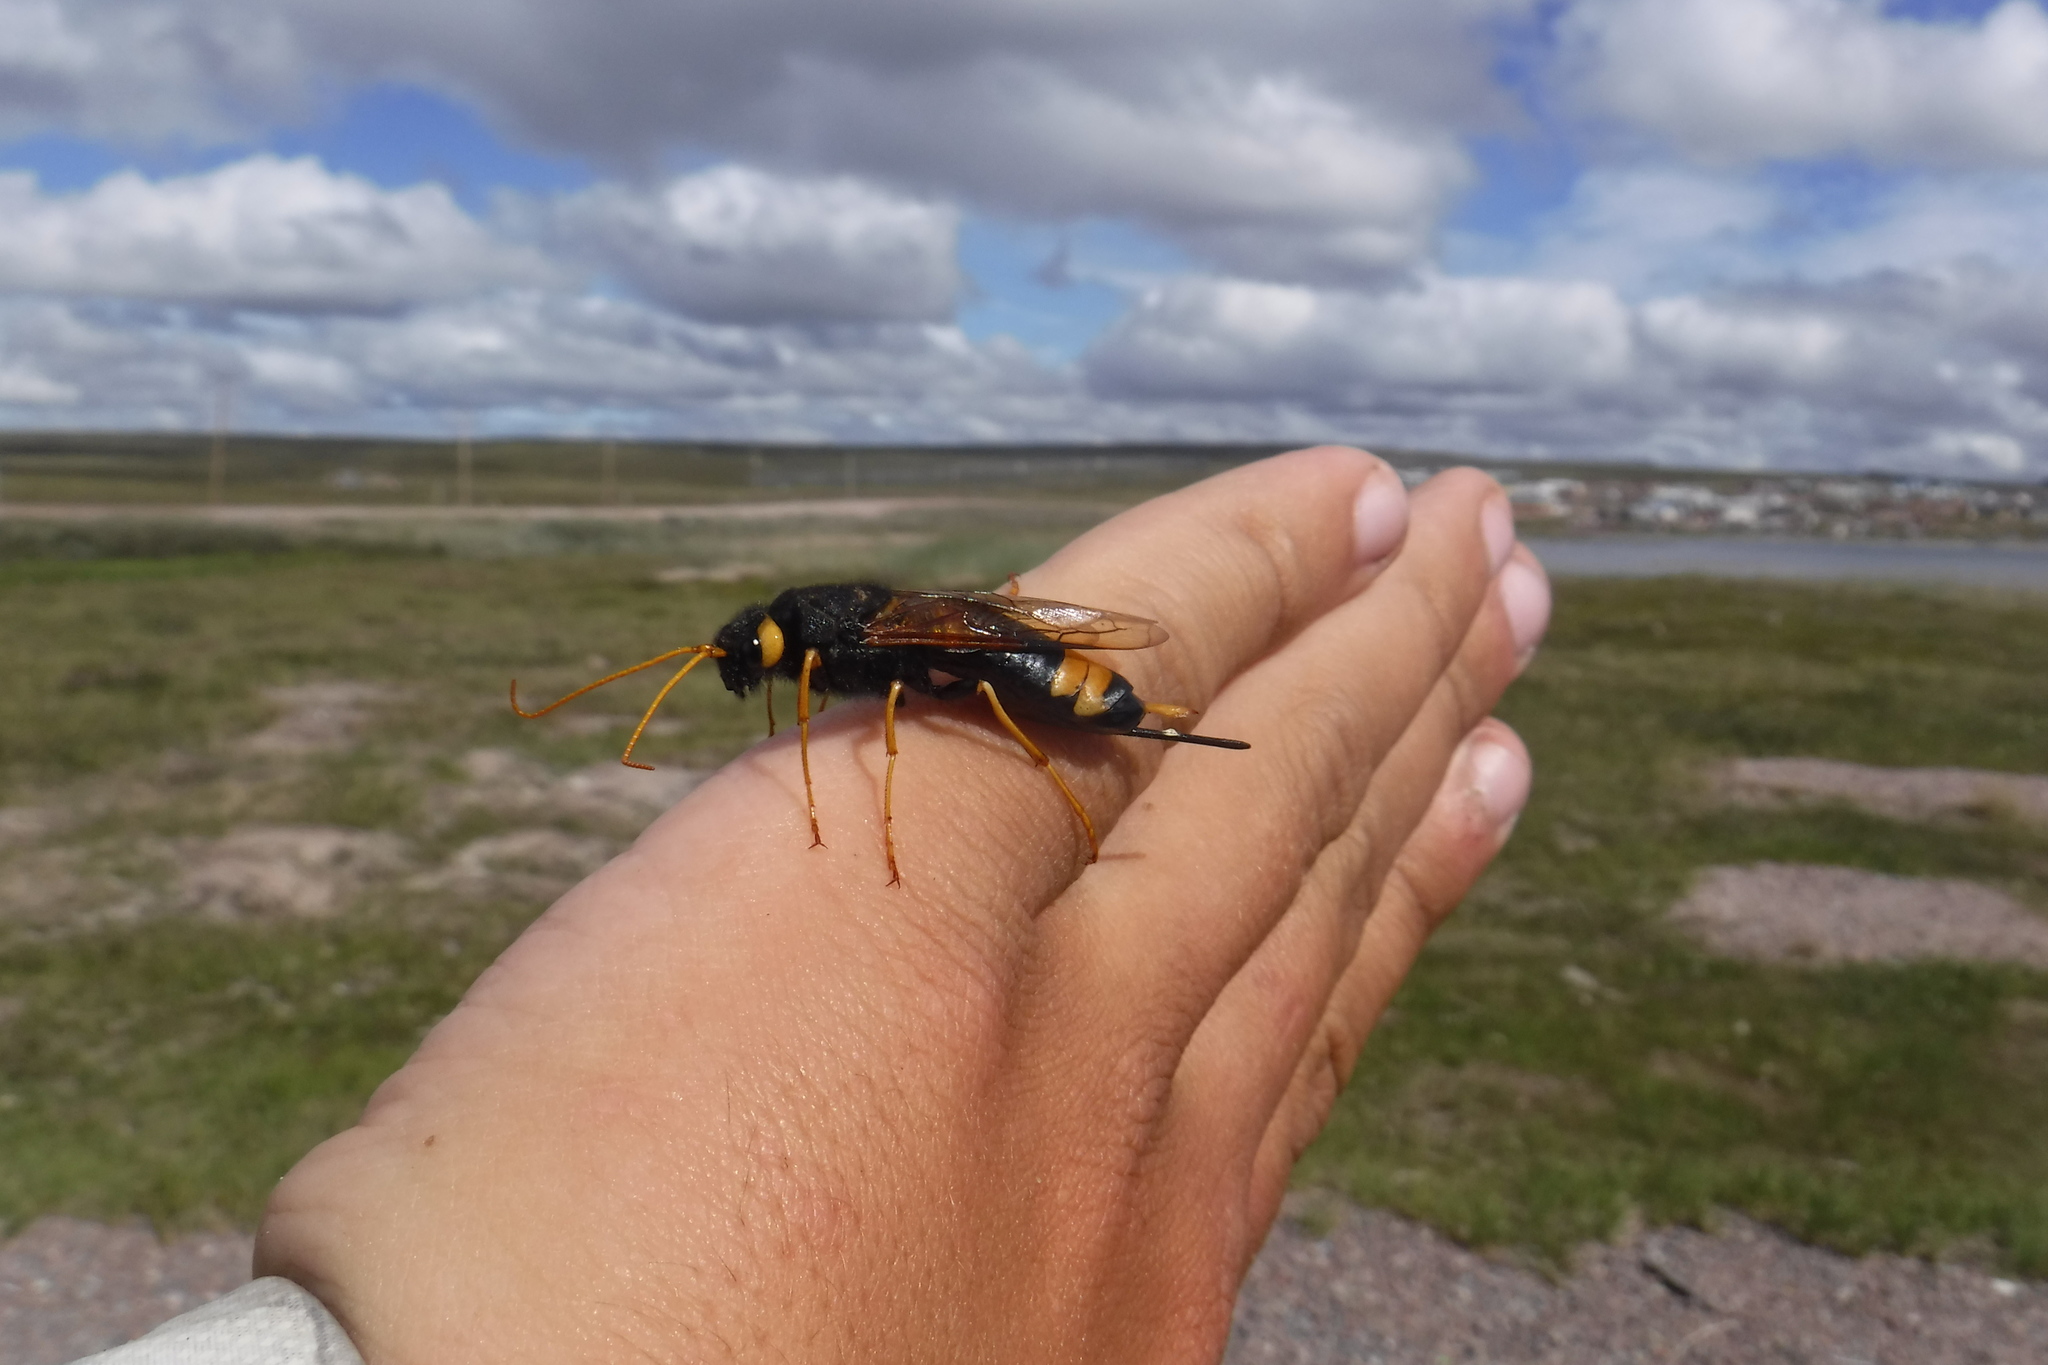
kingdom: Animalia
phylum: Arthropoda
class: Insecta
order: Hymenoptera
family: Siricidae
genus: Urocerus
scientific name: Urocerus flavicornis
